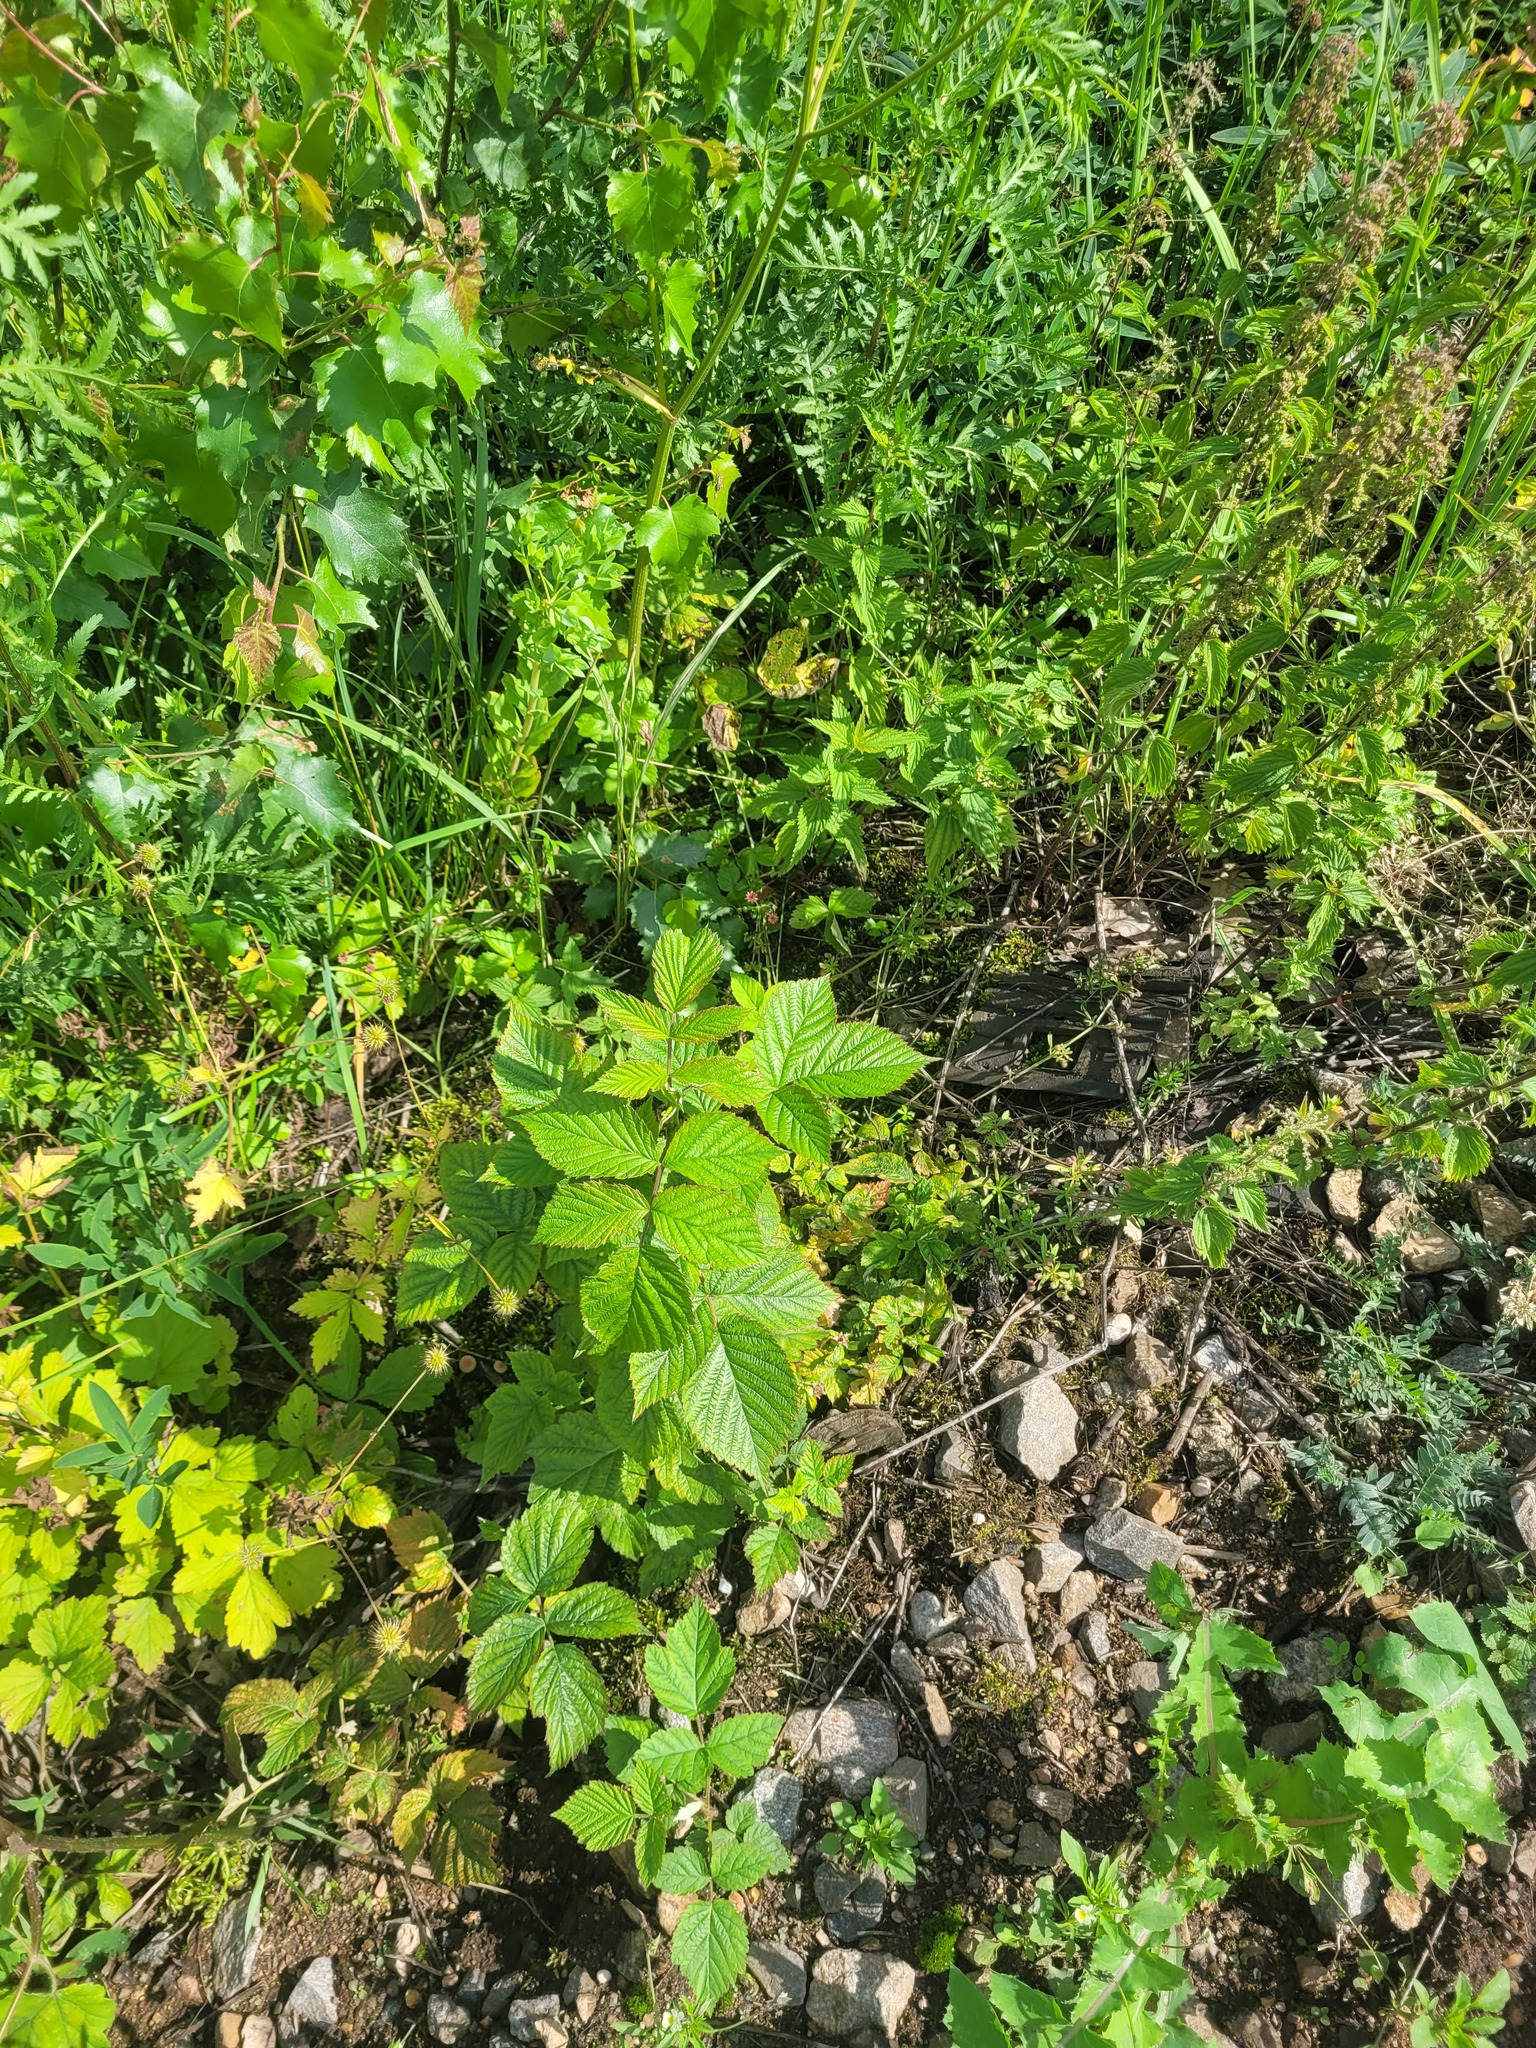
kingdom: Plantae
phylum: Tracheophyta
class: Magnoliopsida
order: Rosales
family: Rosaceae
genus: Rubus
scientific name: Rubus idaeus
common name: Raspberry
